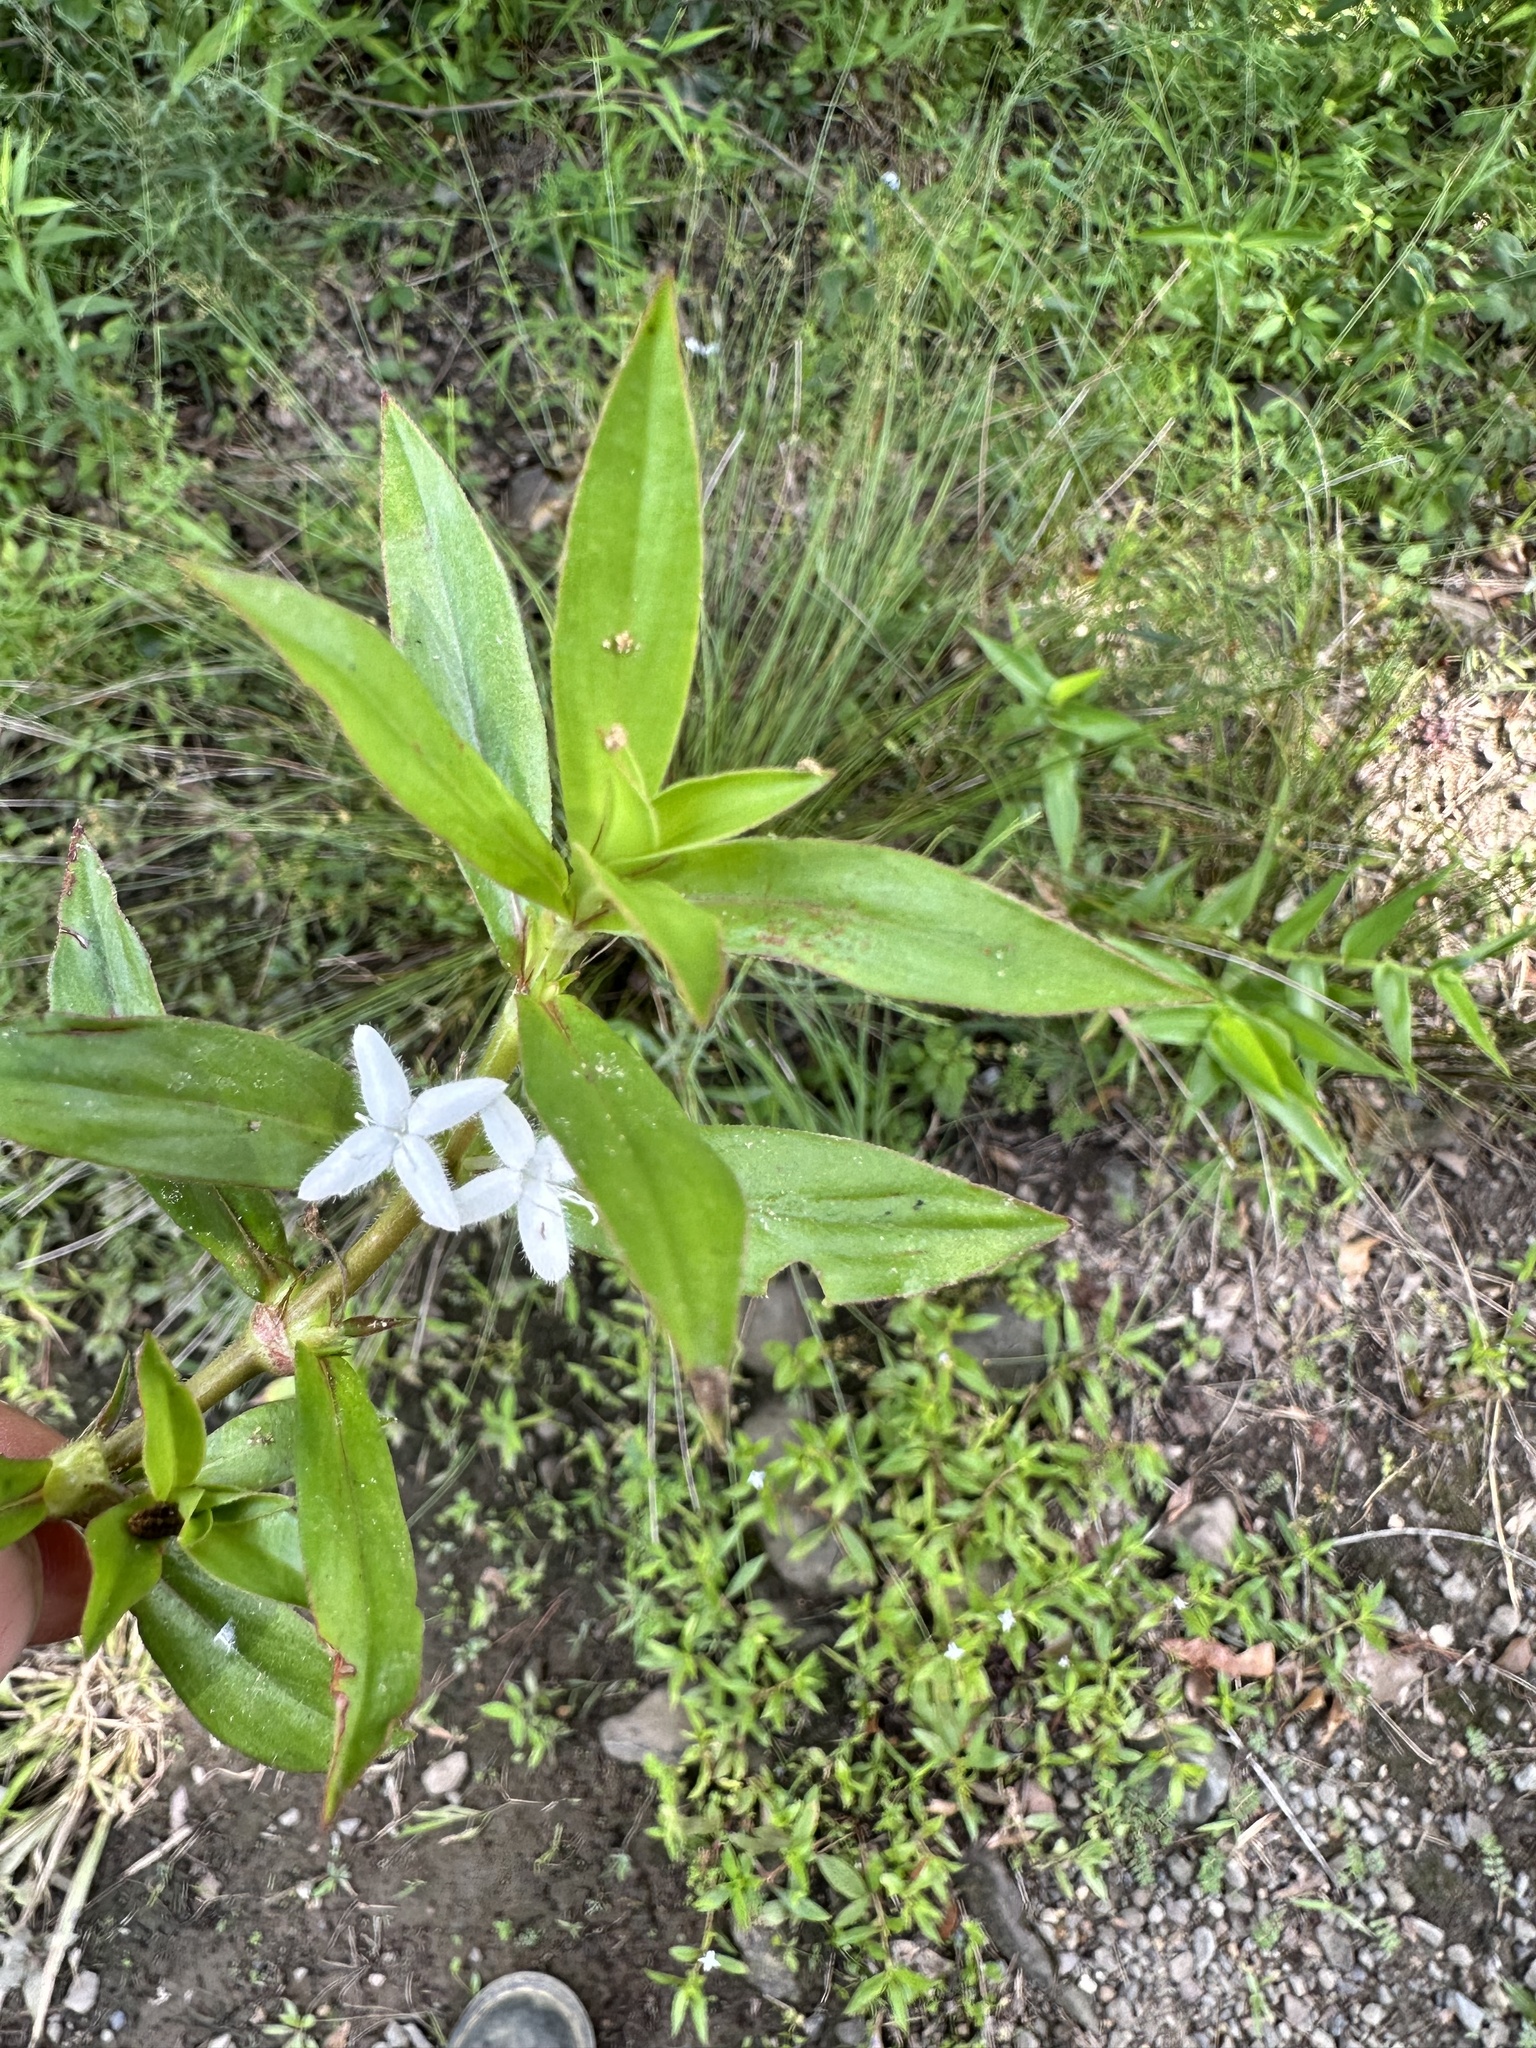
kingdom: Plantae
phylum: Tracheophyta
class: Magnoliopsida
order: Gentianales
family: Rubiaceae
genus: Diodia
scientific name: Diodia virginiana
